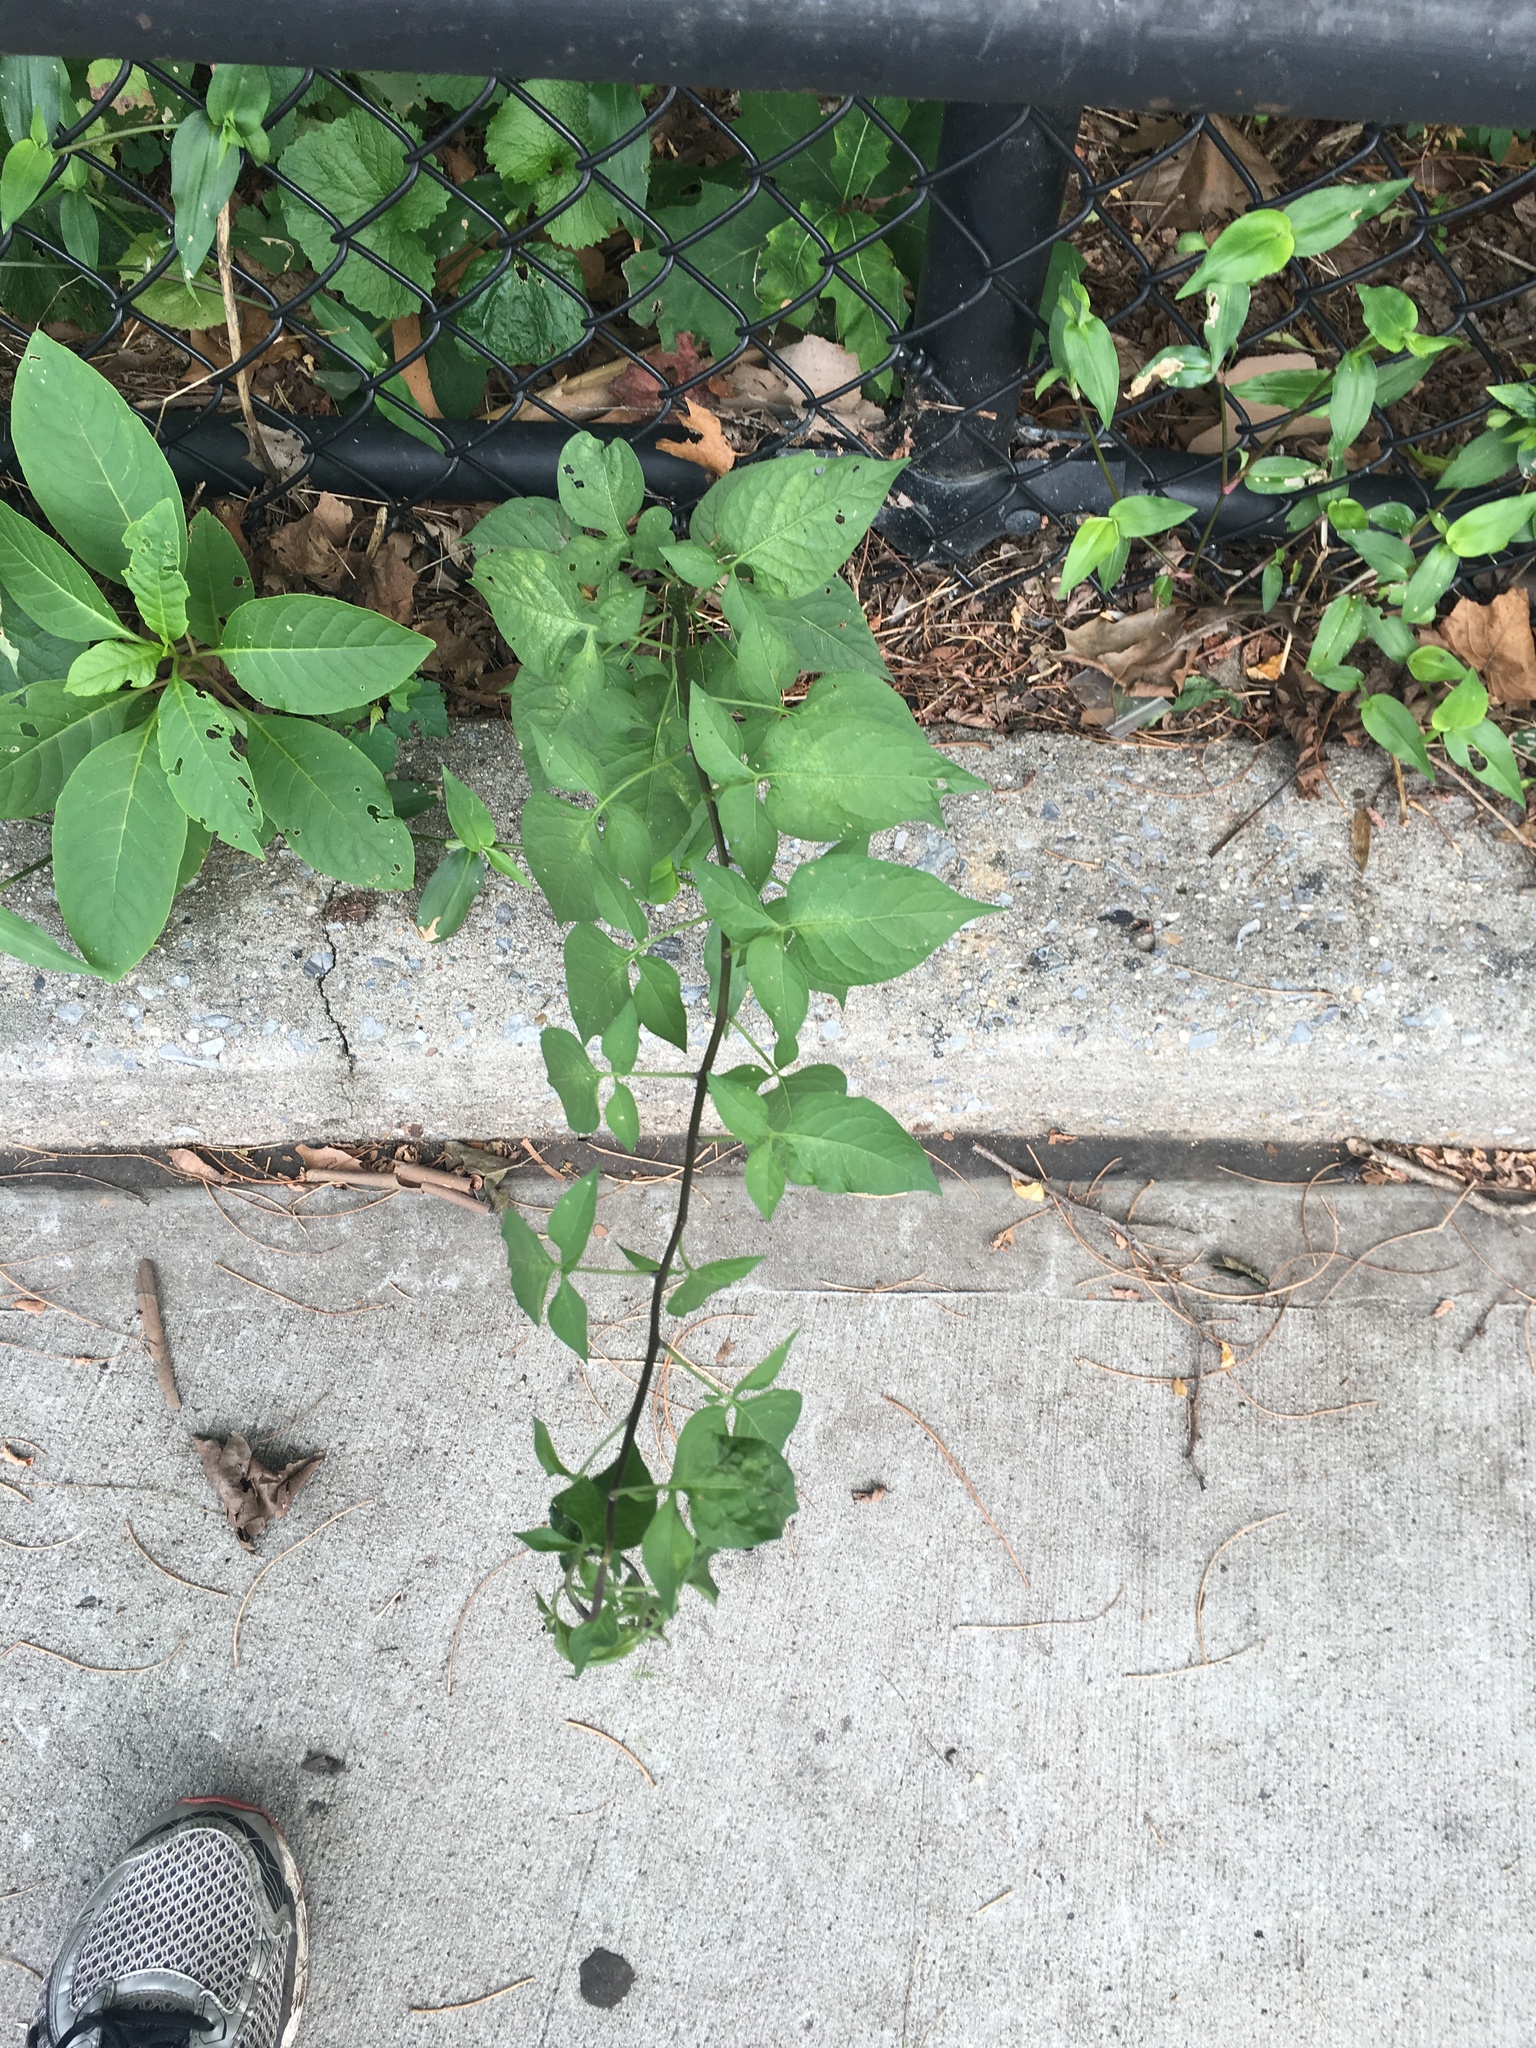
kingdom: Plantae
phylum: Tracheophyta
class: Magnoliopsida
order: Solanales
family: Solanaceae
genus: Solanum
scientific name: Solanum dulcamara
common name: Climbing nightshade
